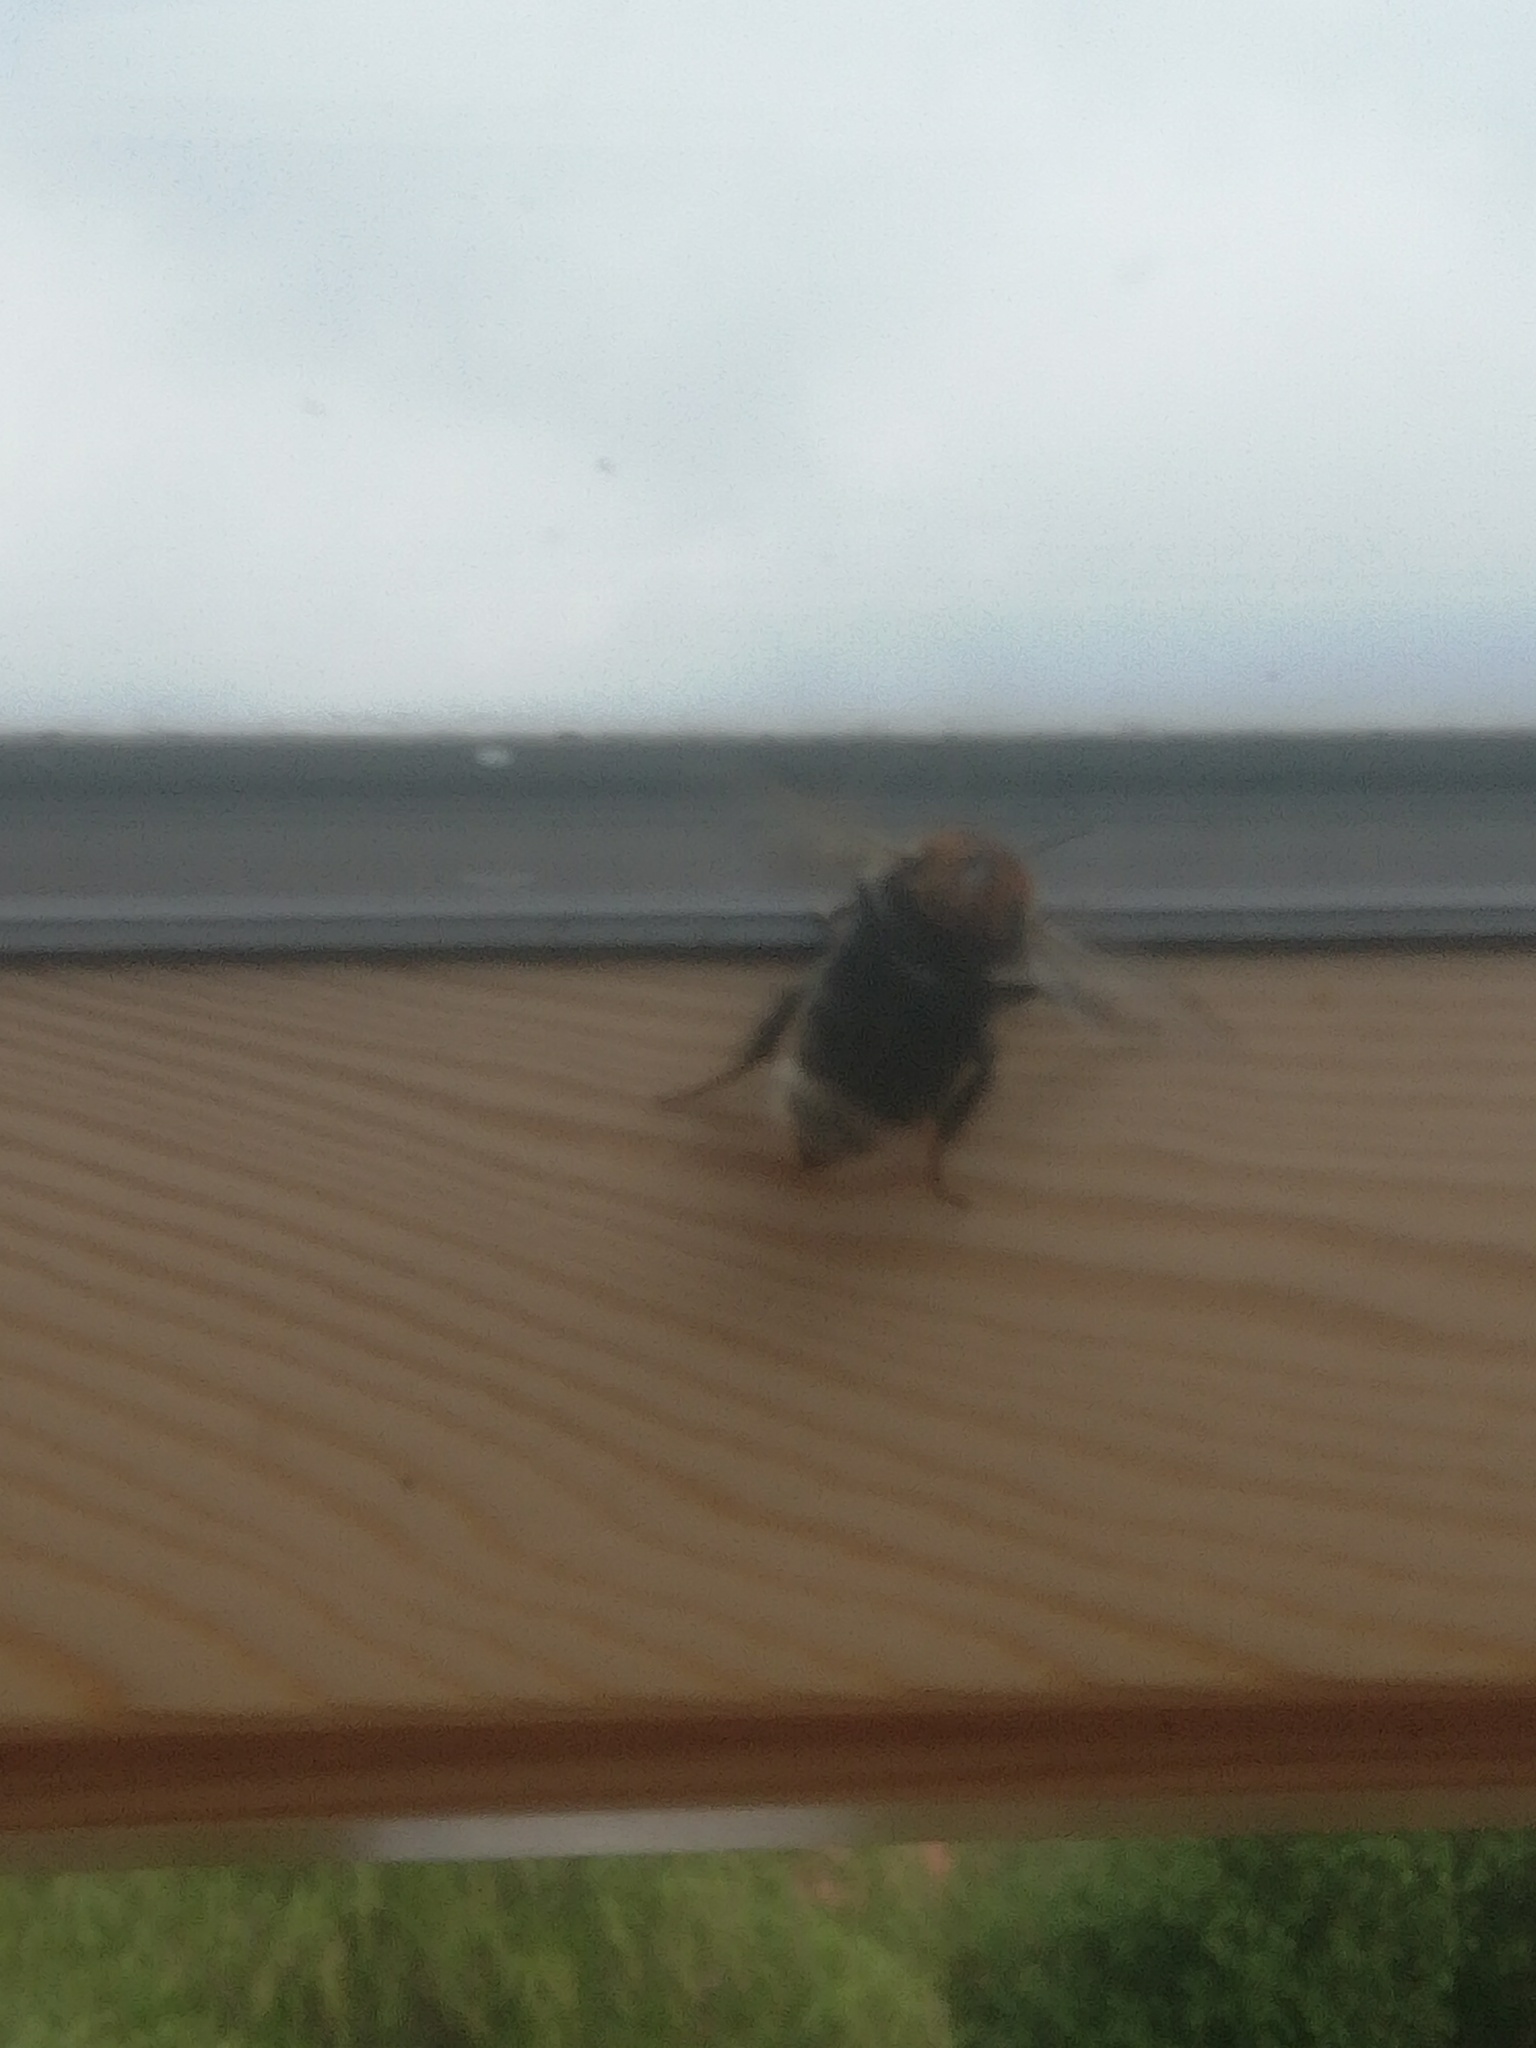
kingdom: Animalia
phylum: Arthropoda
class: Insecta
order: Hymenoptera
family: Apidae
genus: Bombus
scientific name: Bombus hypnorum
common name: New garden bumblebee
